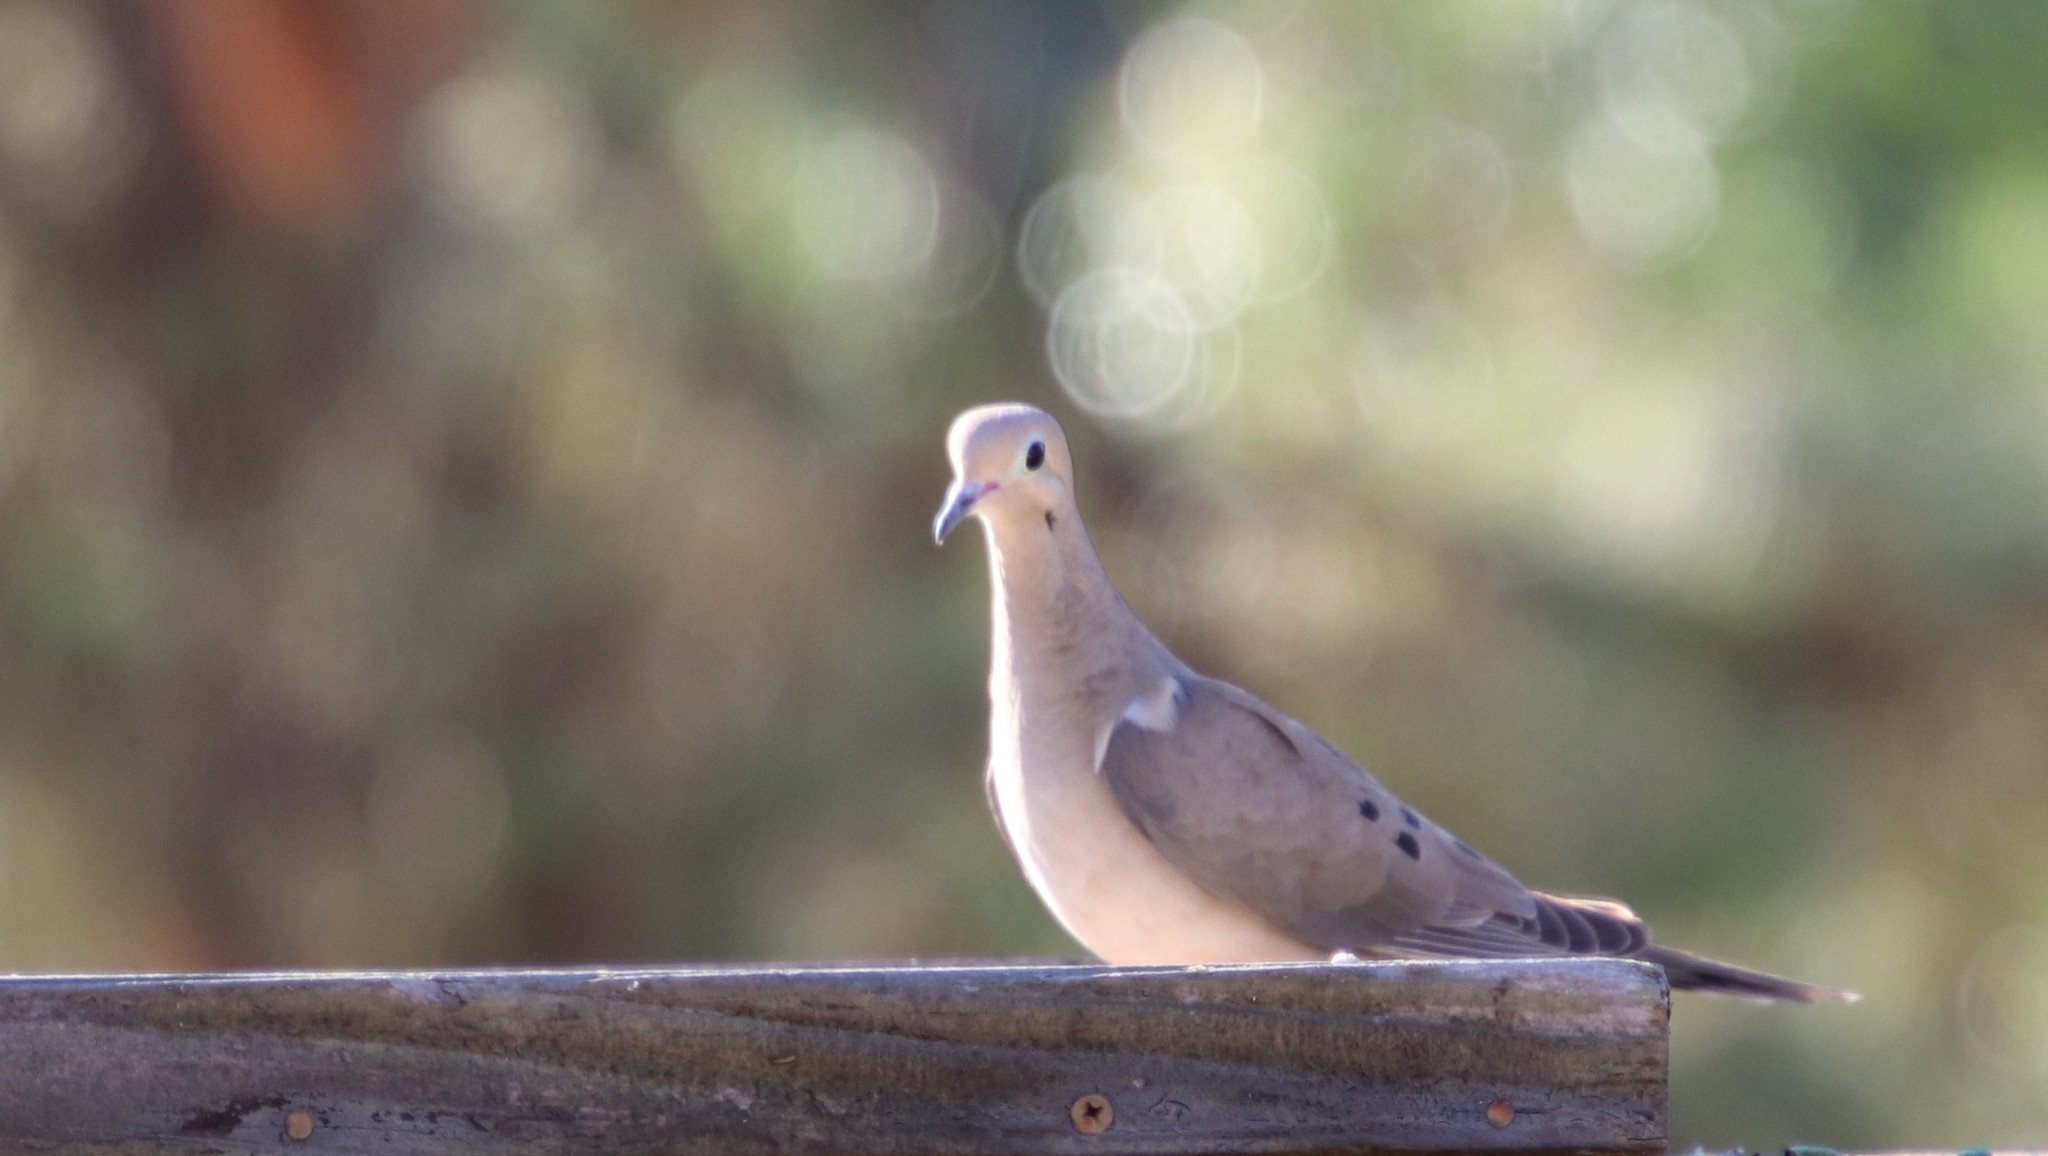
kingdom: Animalia
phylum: Chordata
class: Aves
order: Columbiformes
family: Columbidae
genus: Zenaida
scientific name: Zenaida macroura
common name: Mourning dove
